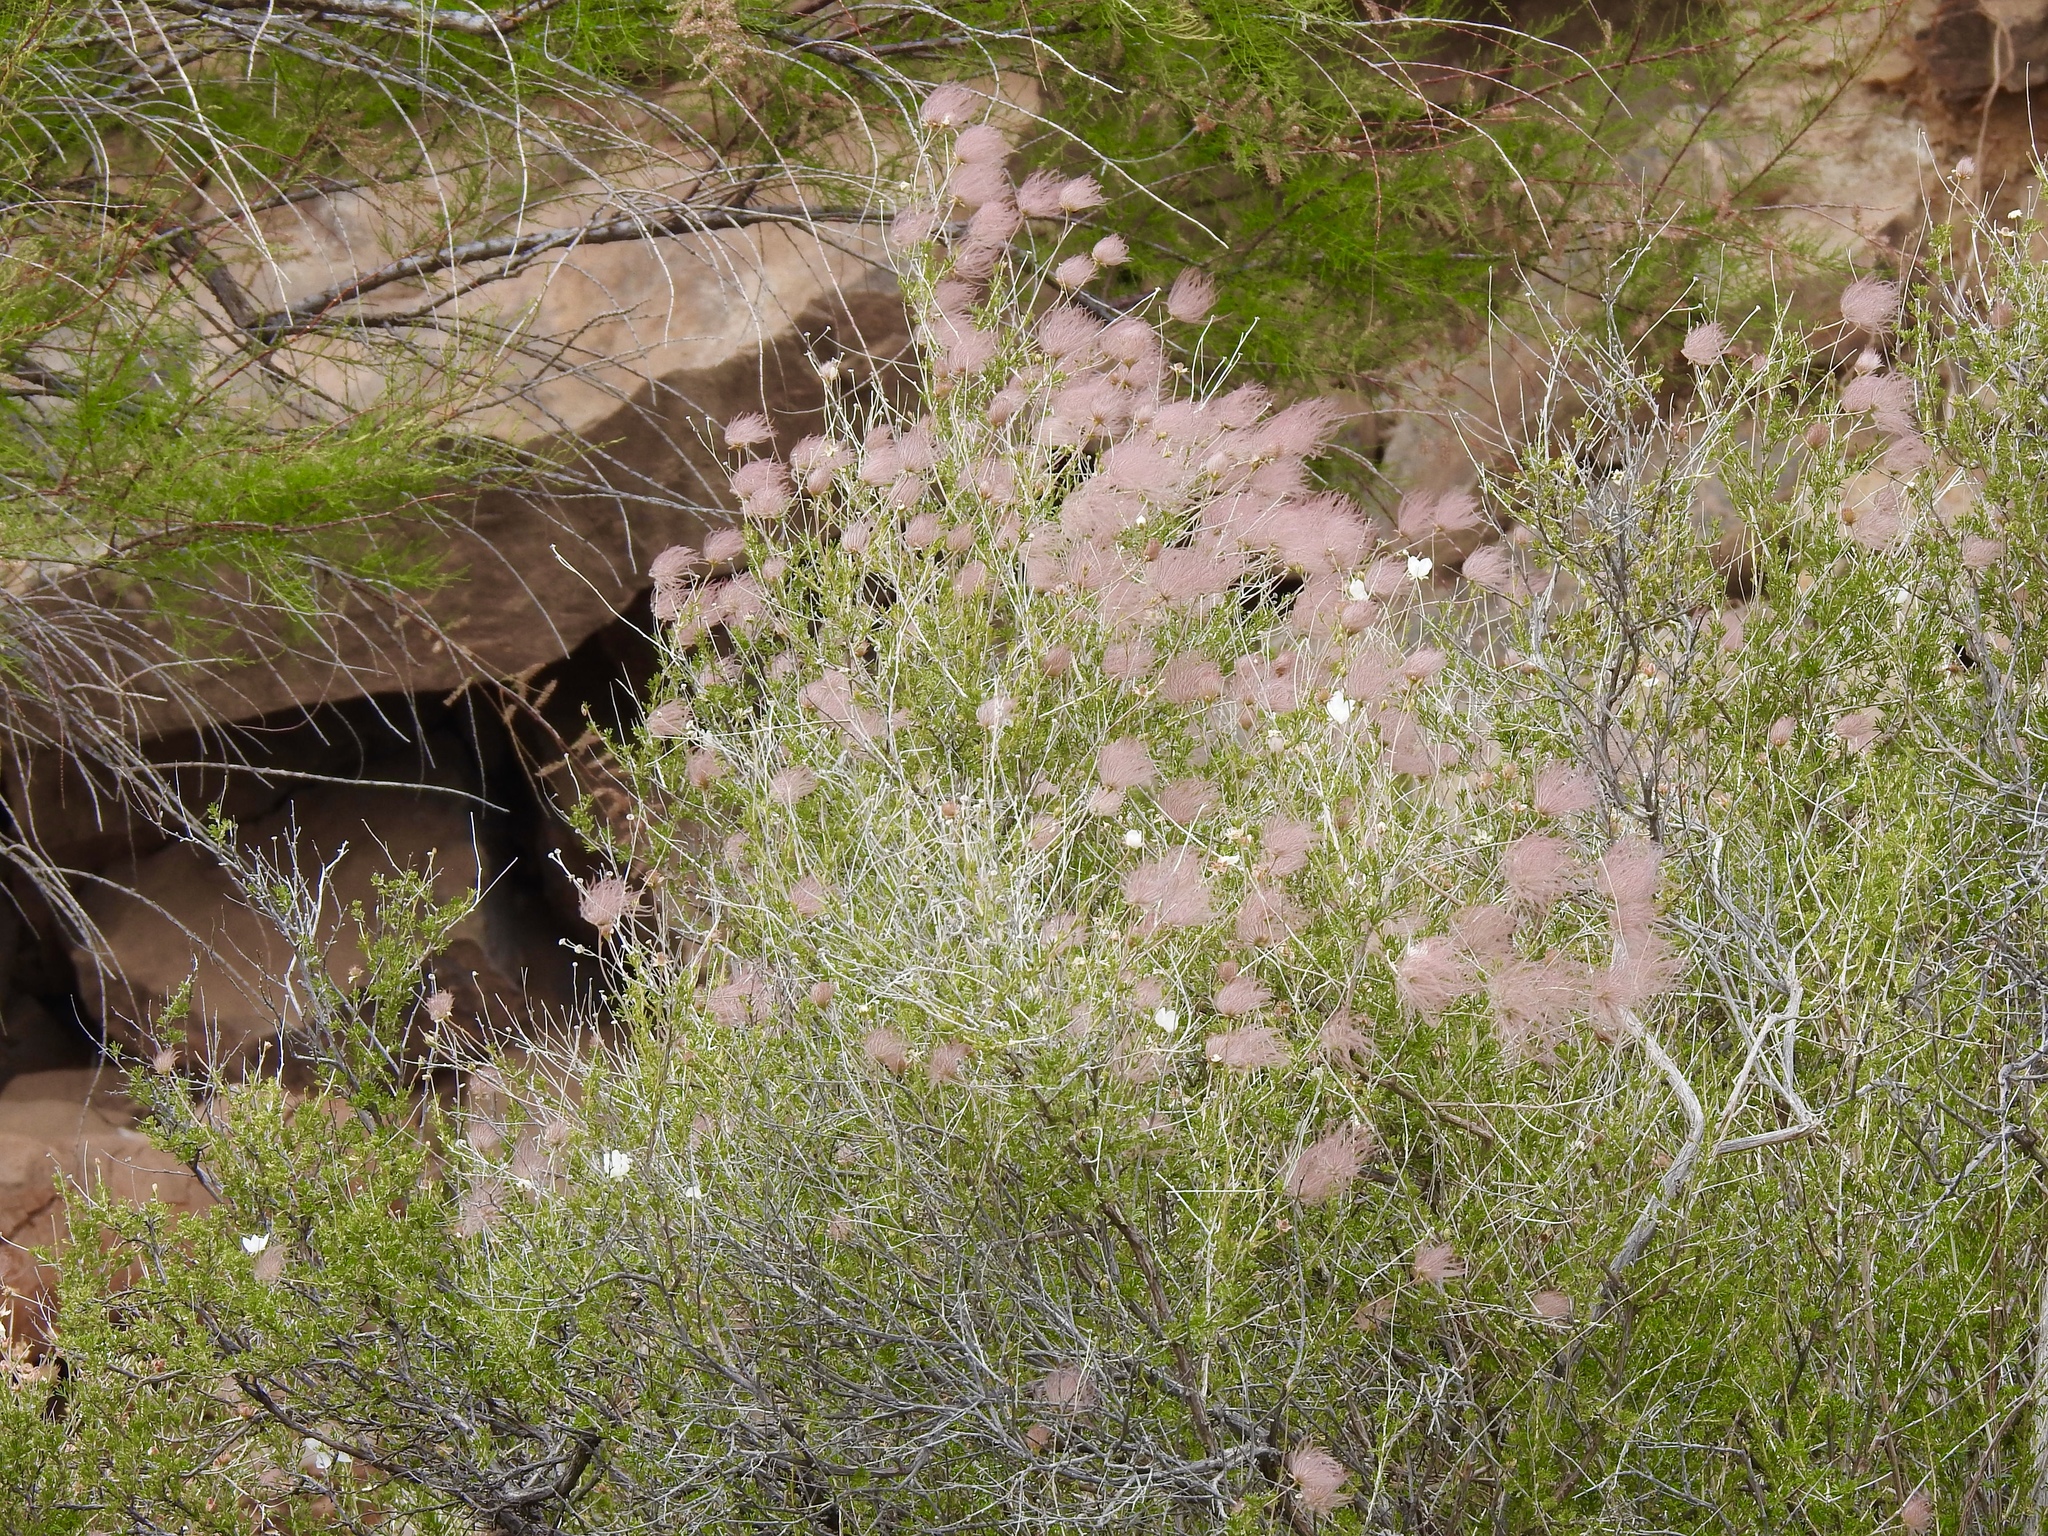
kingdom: Plantae
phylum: Tracheophyta
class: Magnoliopsida
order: Rosales
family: Rosaceae
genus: Fallugia
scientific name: Fallugia paradoxa
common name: Apache-plume
